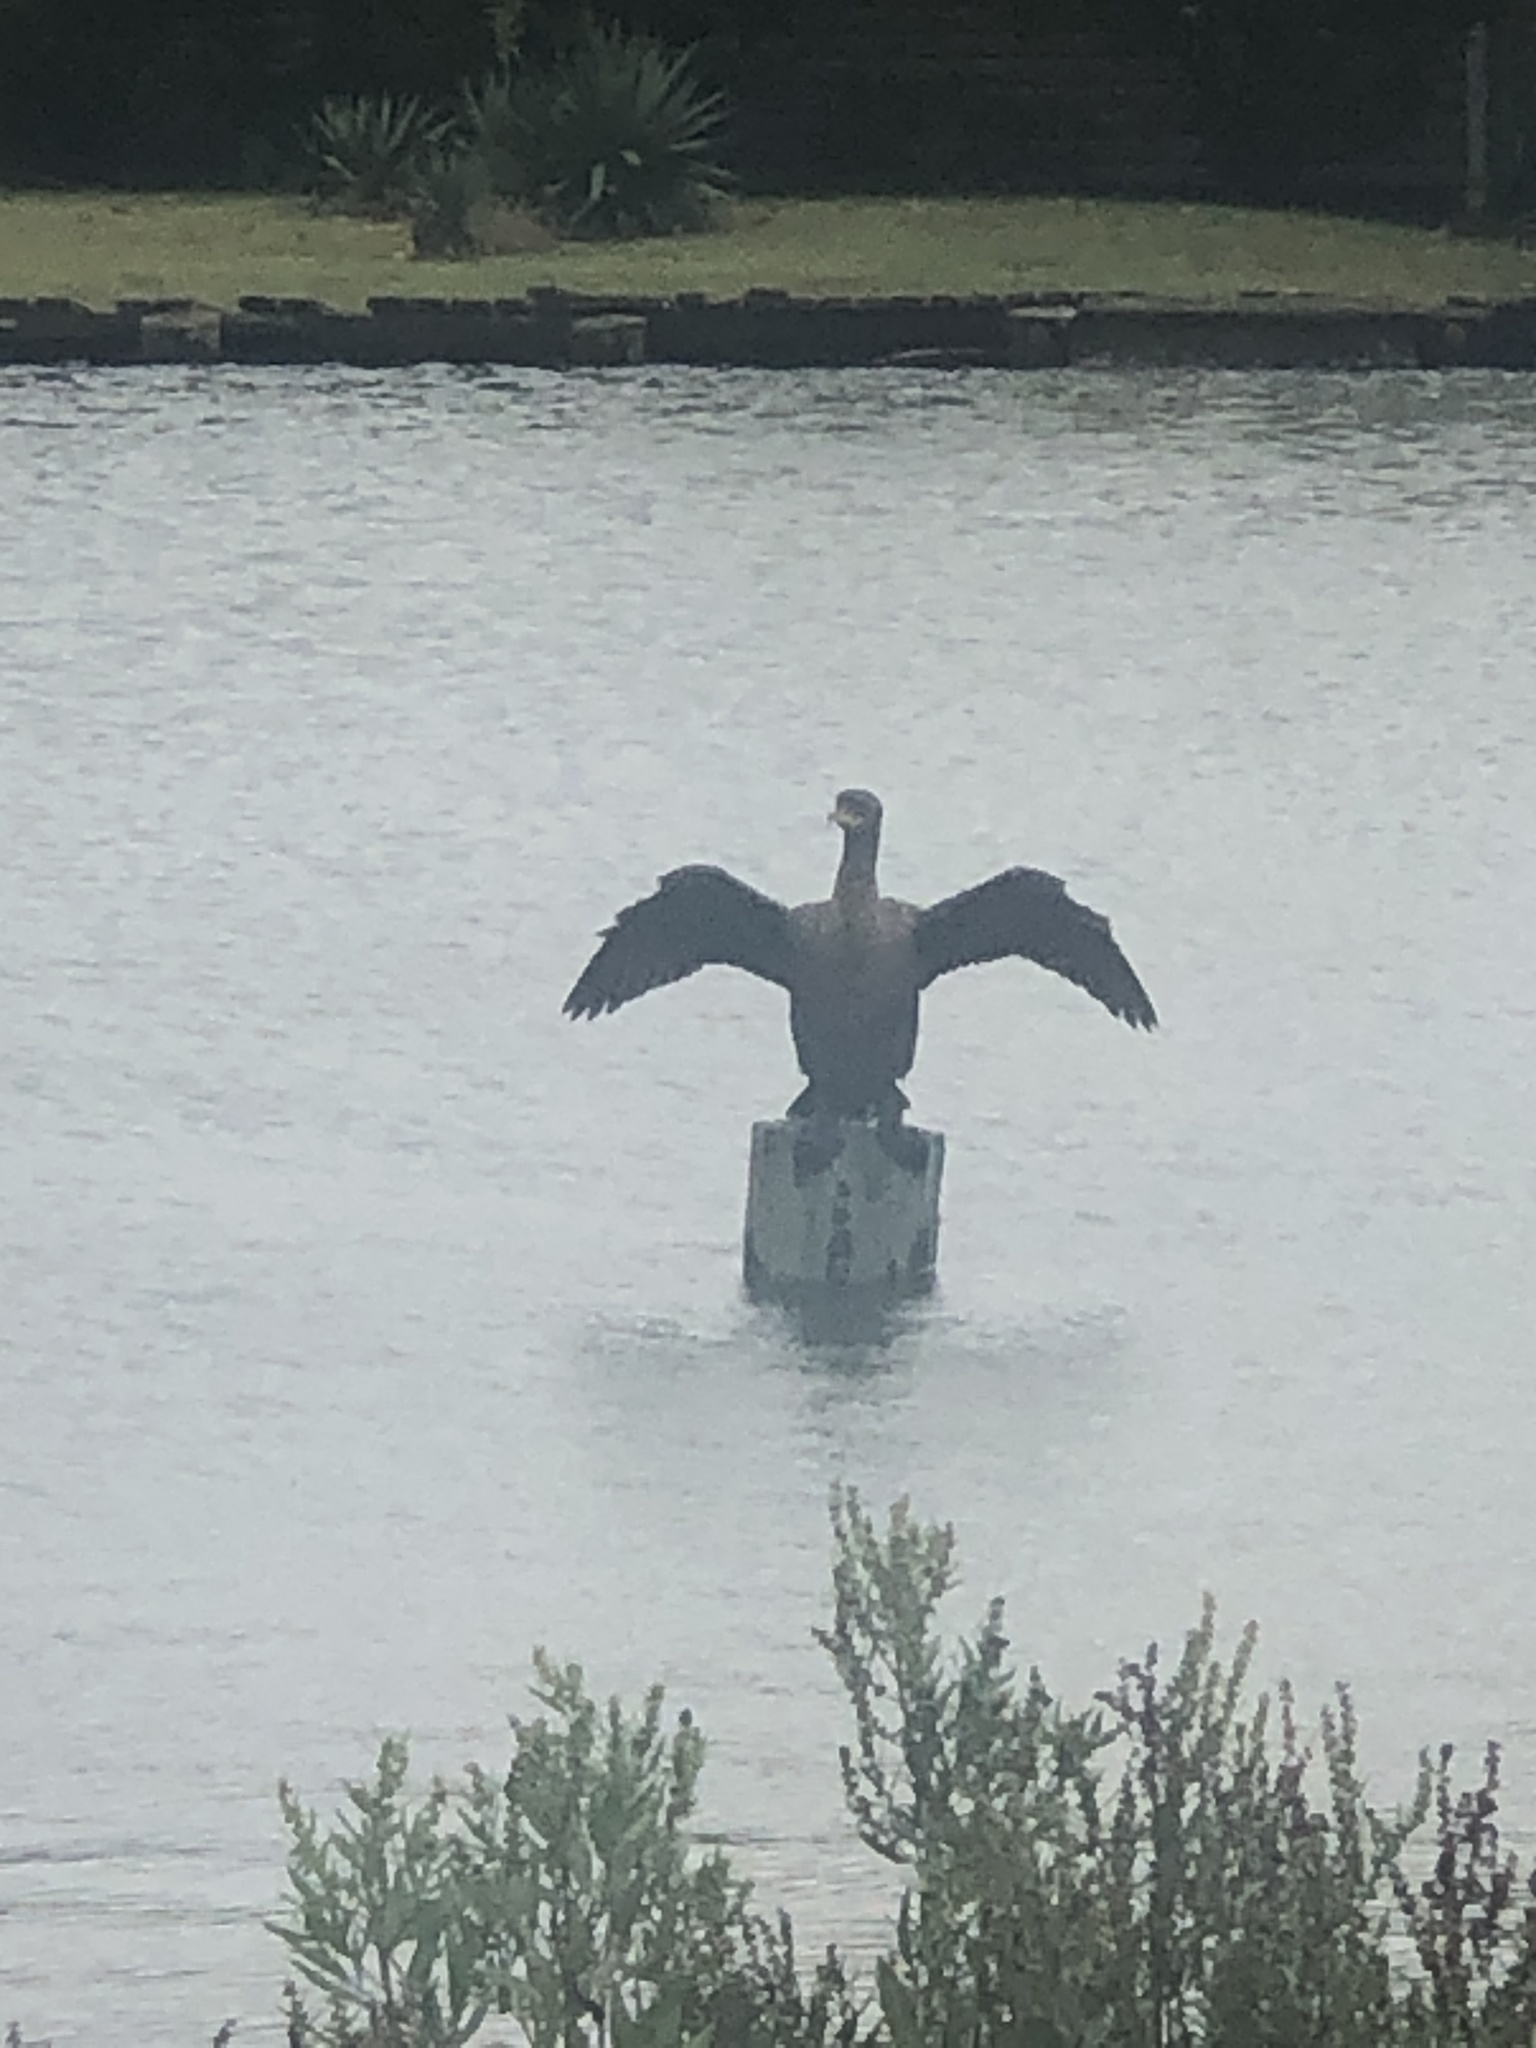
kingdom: Animalia
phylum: Chordata
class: Aves
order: Suliformes
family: Phalacrocoracidae
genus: Phalacrocorax
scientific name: Phalacrocorax auritus
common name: Double-crested cormorant
